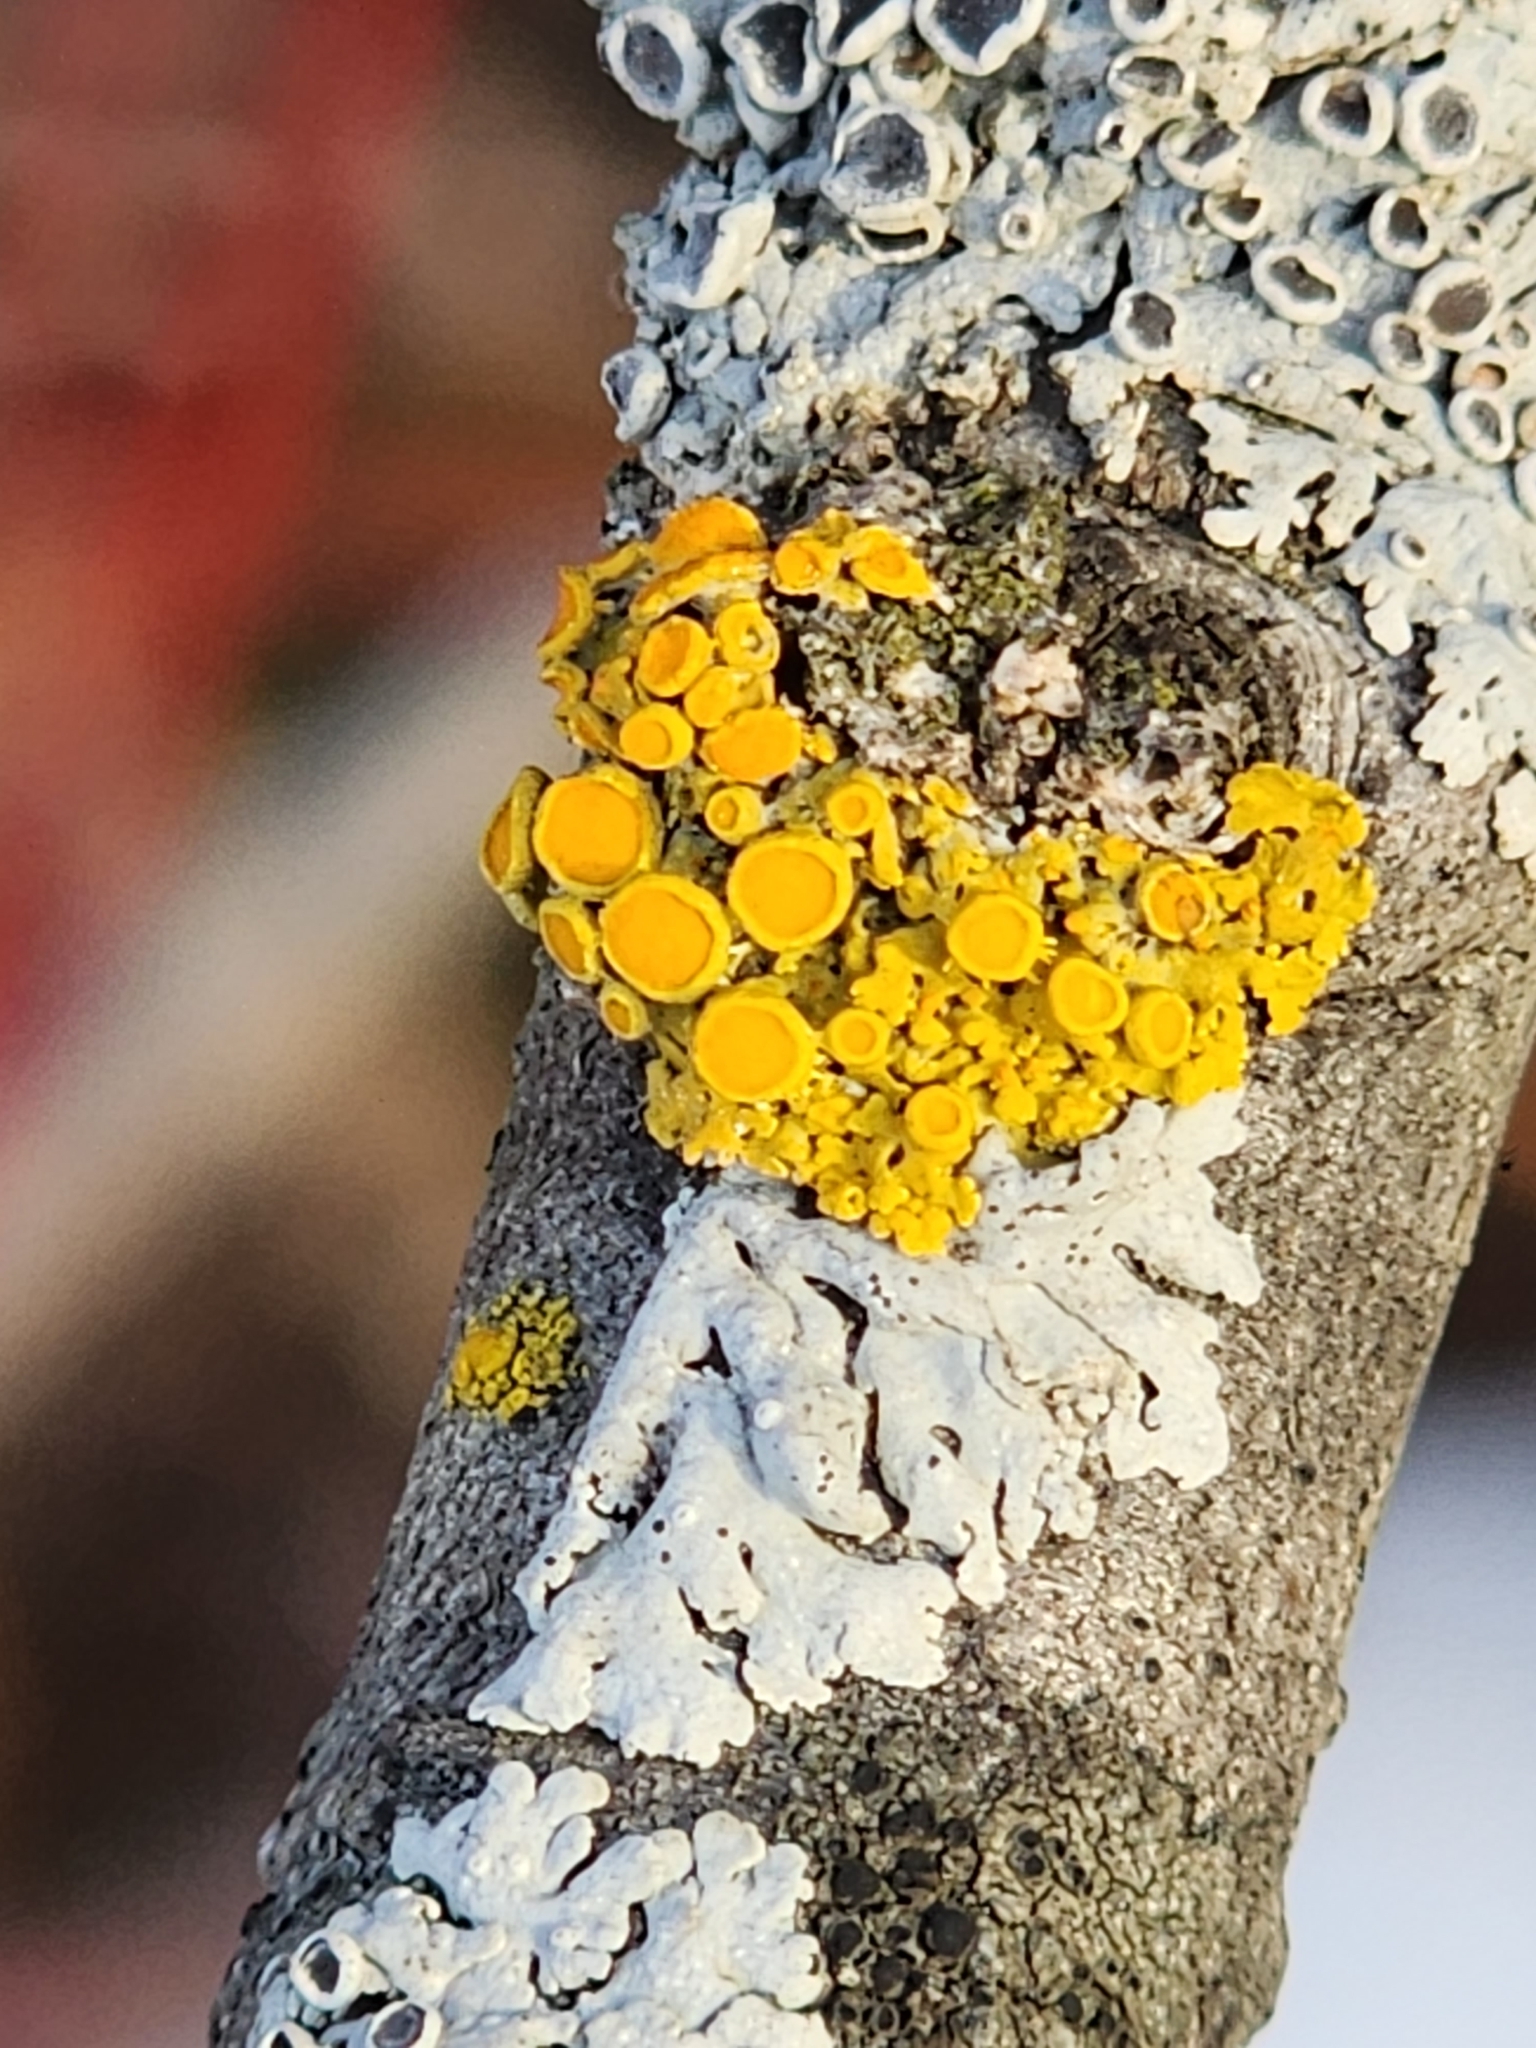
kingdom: Fungi
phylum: Ascomycota
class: Lecanoromycetes
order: Teloschistales
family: Teloschistaceae
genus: Gallowayella
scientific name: Gallowayella hasseana
